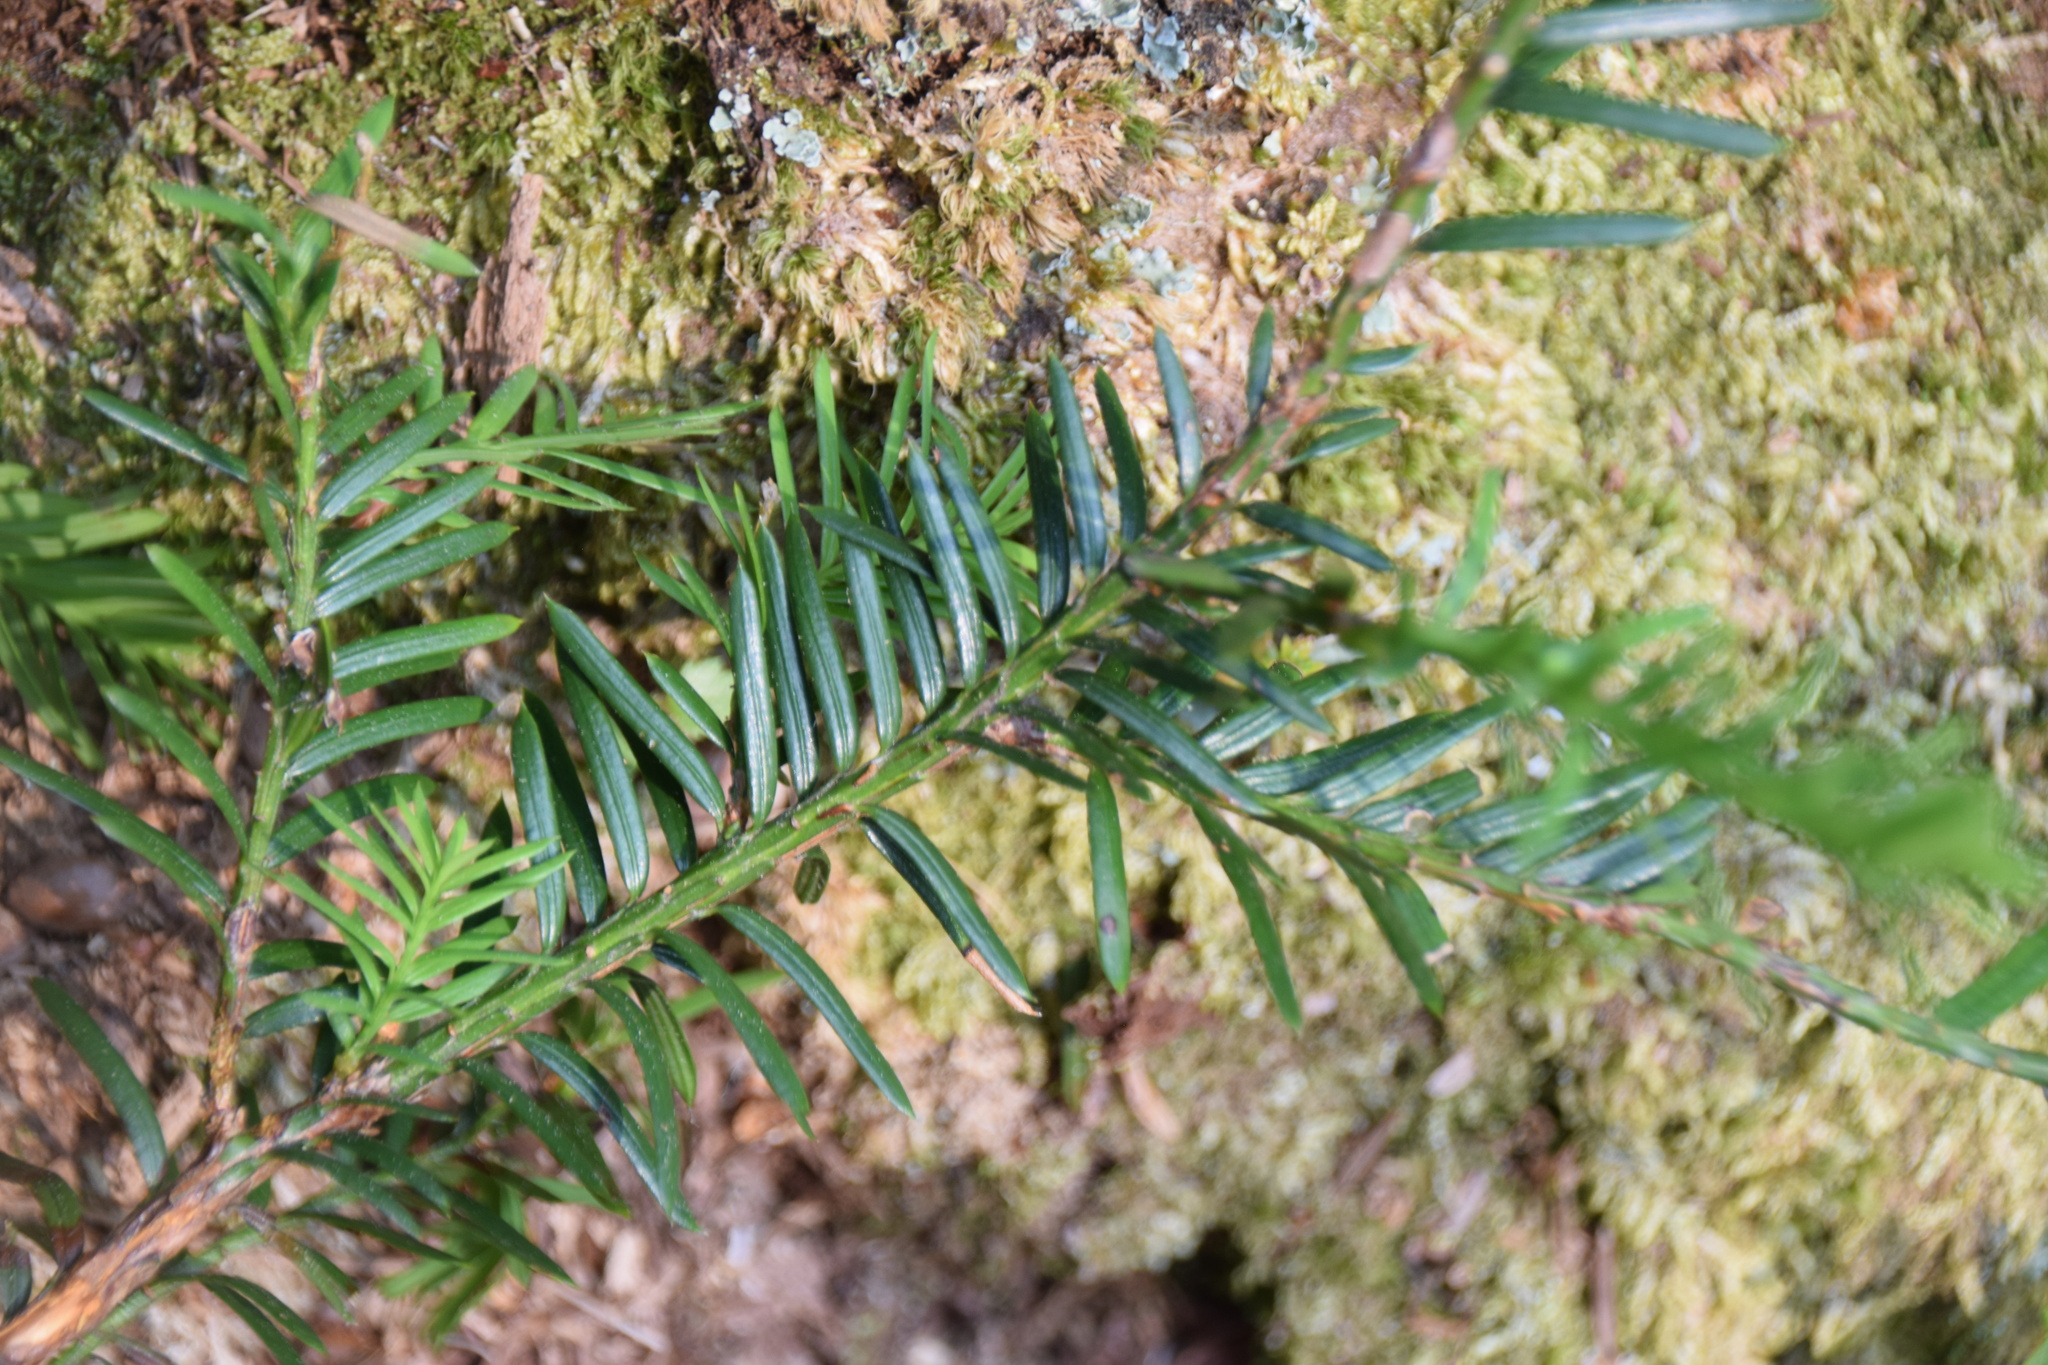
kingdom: Plantae
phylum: Tracheophyta
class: Pinopsida
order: Pinales
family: Taxaceae
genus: Taxus
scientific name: Taxus canadensis
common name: American yew
